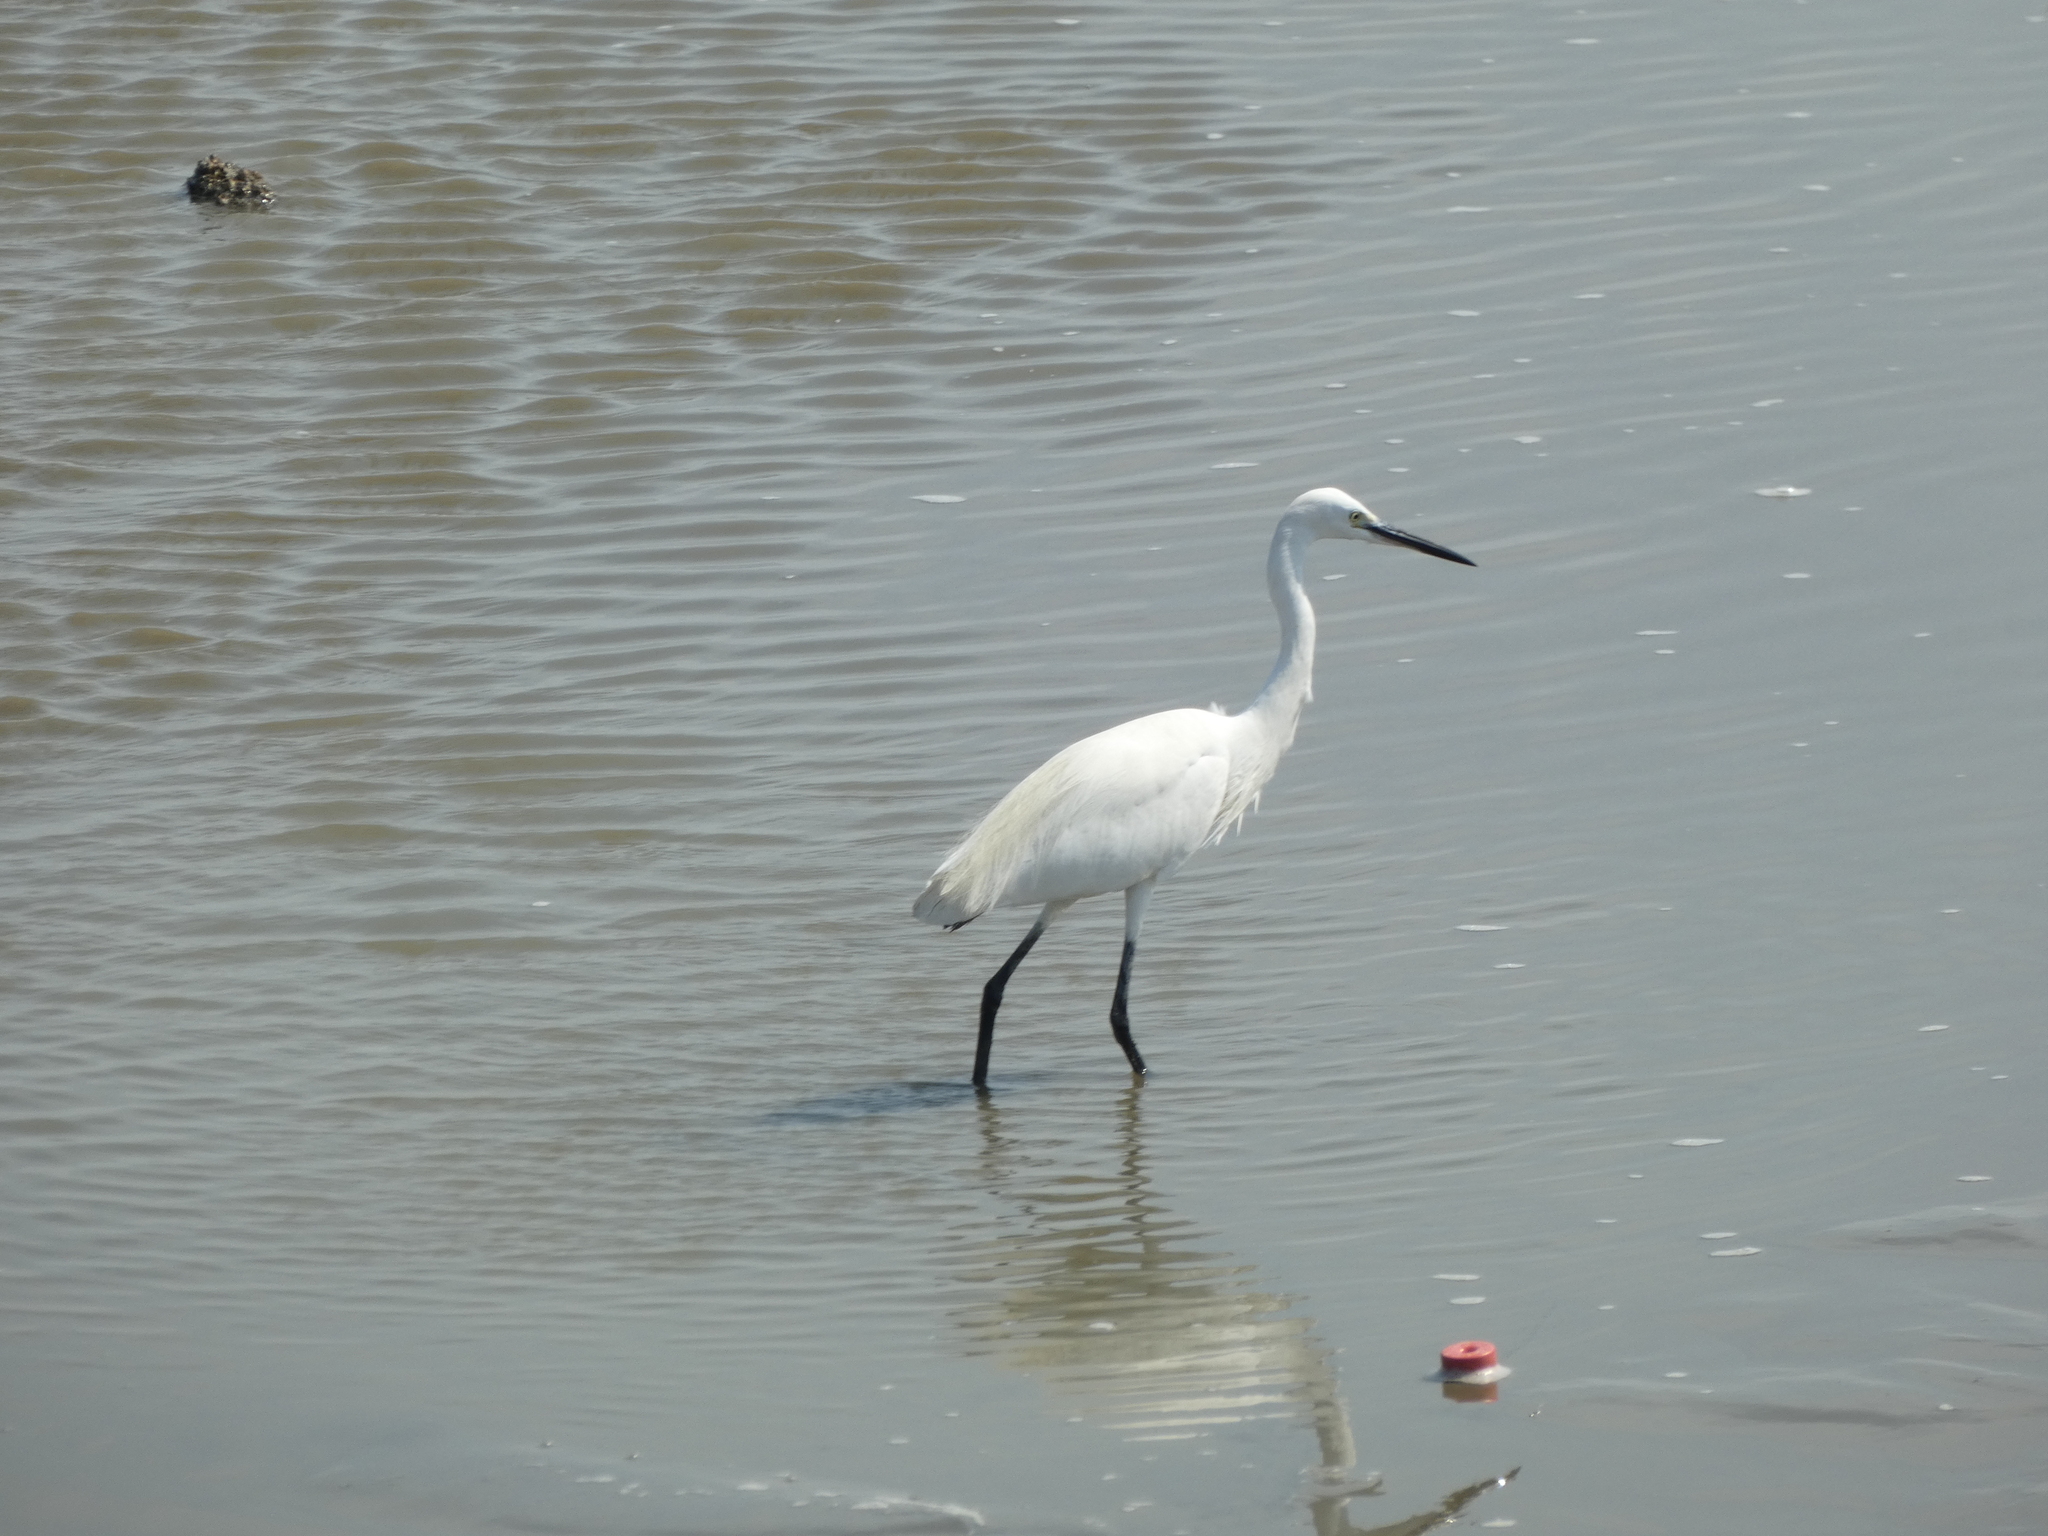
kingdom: Animalia
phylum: Chordata
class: Aves
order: Pelecaniformes
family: Ardeidae
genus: Egretta
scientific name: Egretta garzetta
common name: Little egret
